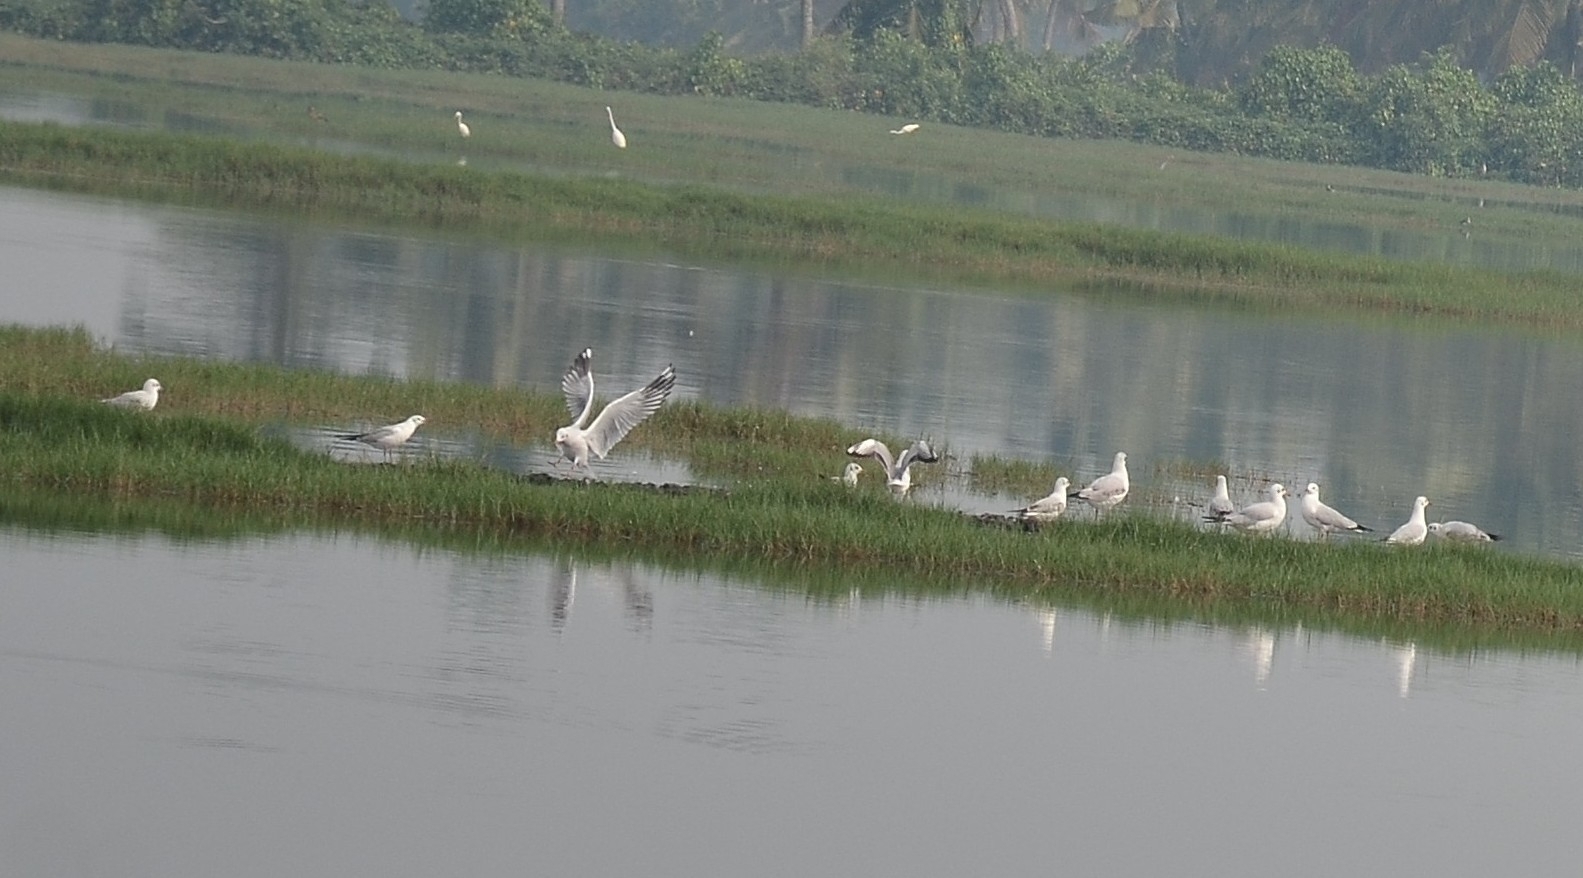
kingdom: Animalia
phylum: Chordata
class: Aves
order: Charadriiformes
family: Laridae
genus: Chroicocephalus
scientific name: Chroicocephalus brunnicephalus
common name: Brown-headed gull
